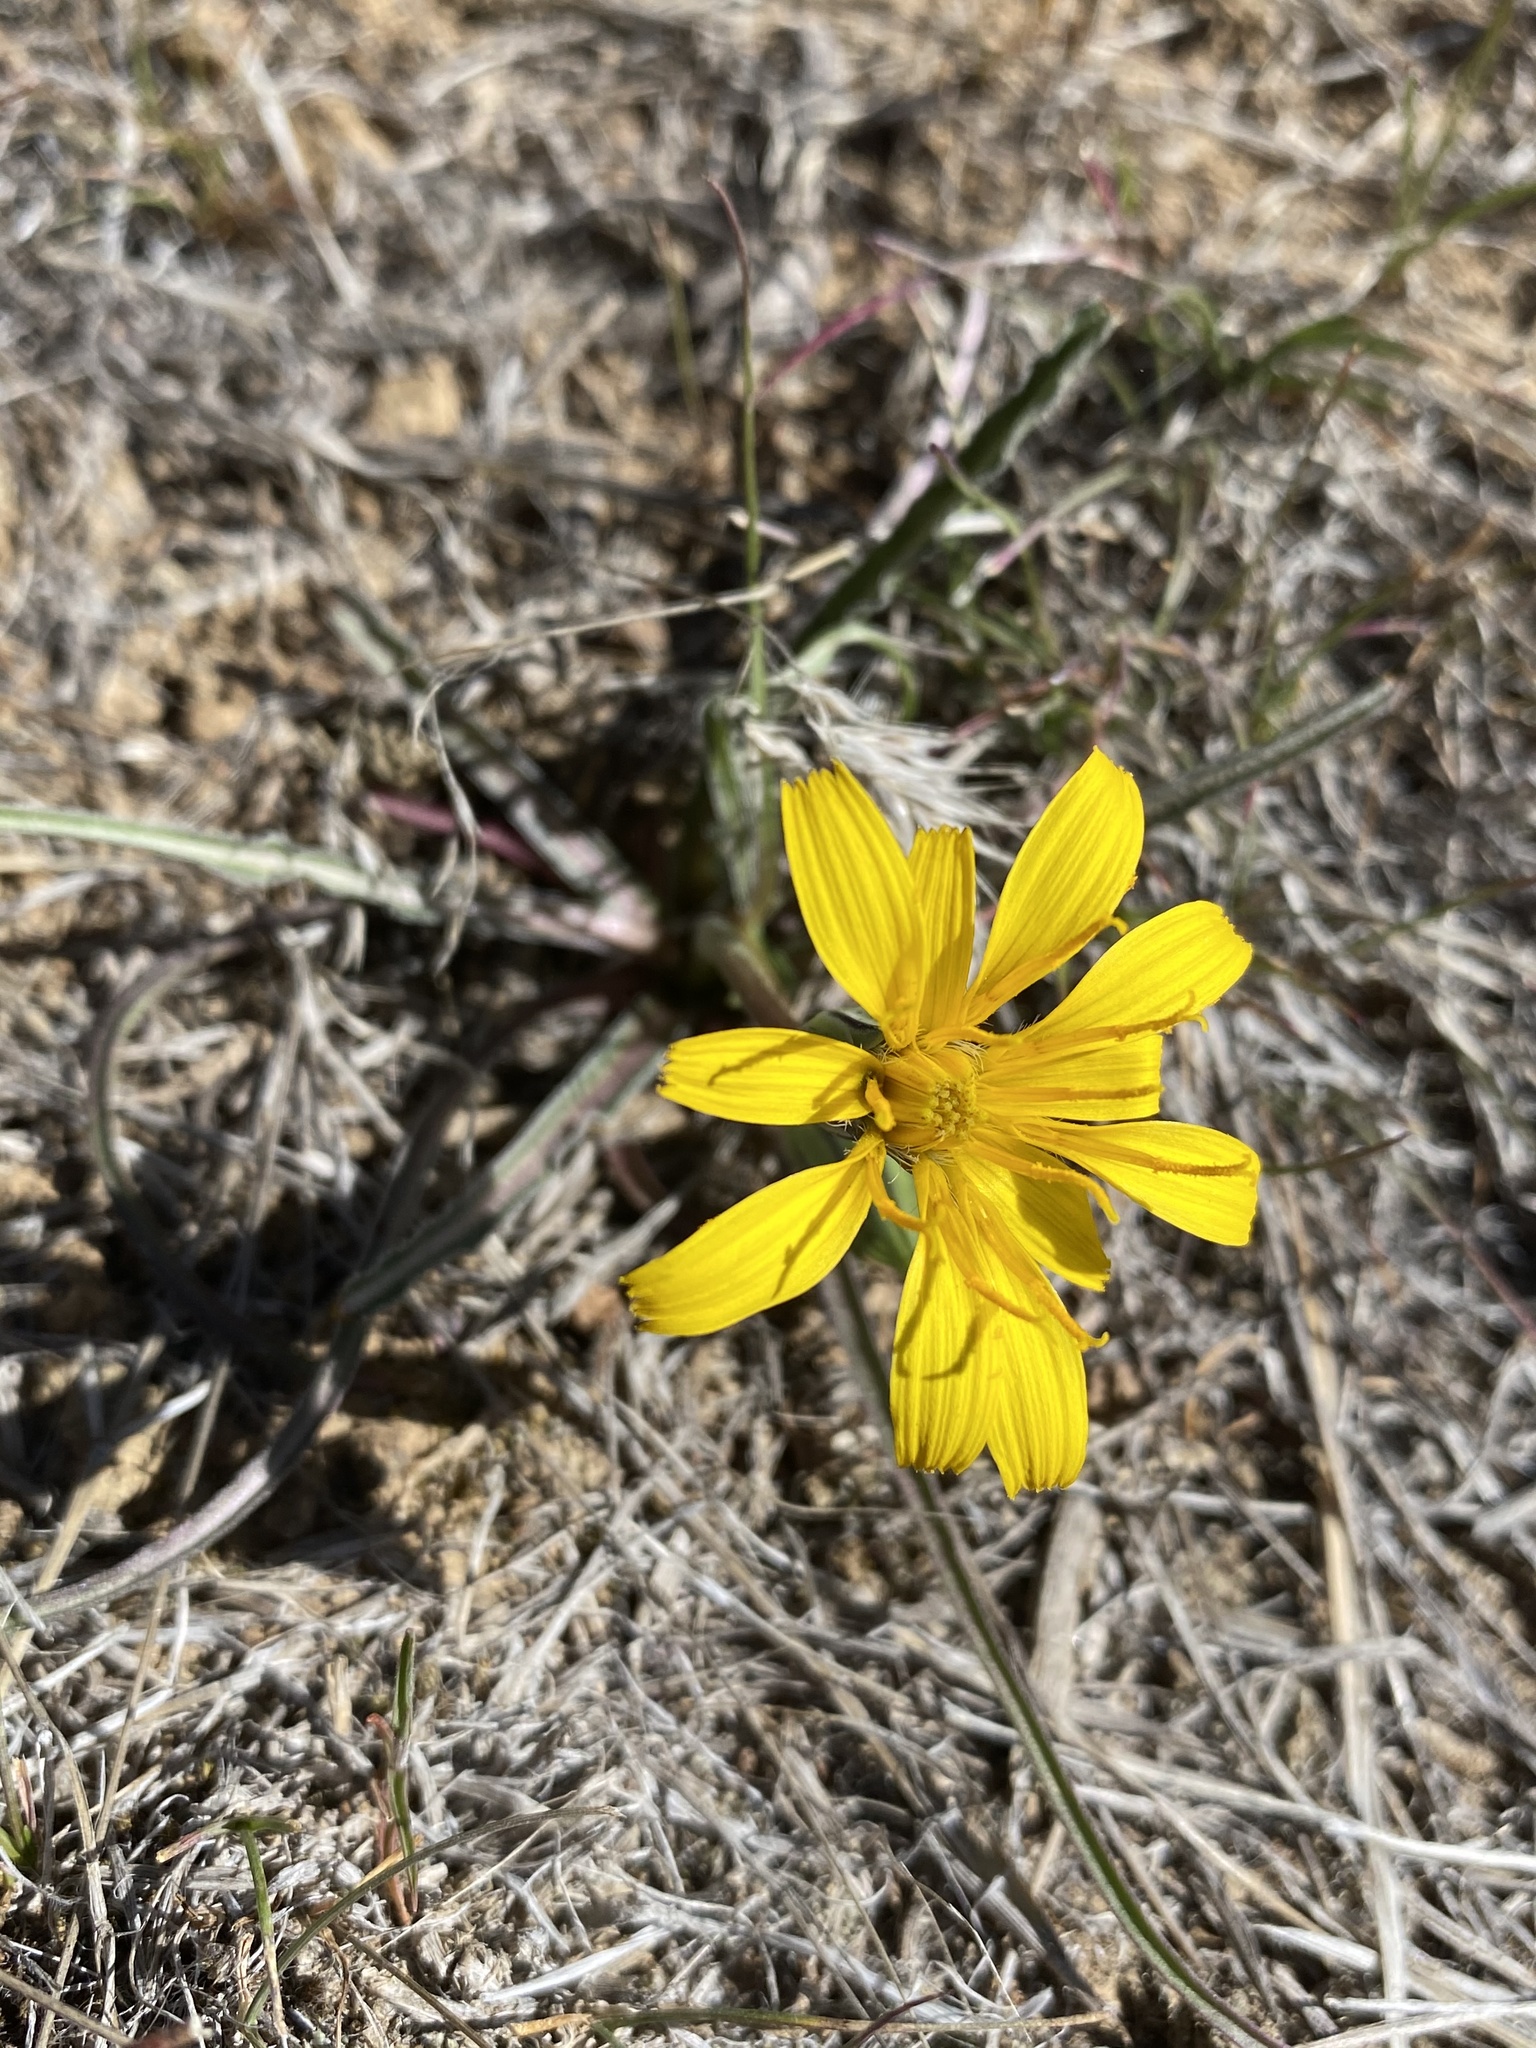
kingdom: Plantae
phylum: Tracheophyta
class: Magnoliopsida
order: Asterales
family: Asteraceae
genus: Microseris
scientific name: Microseris troximoides
